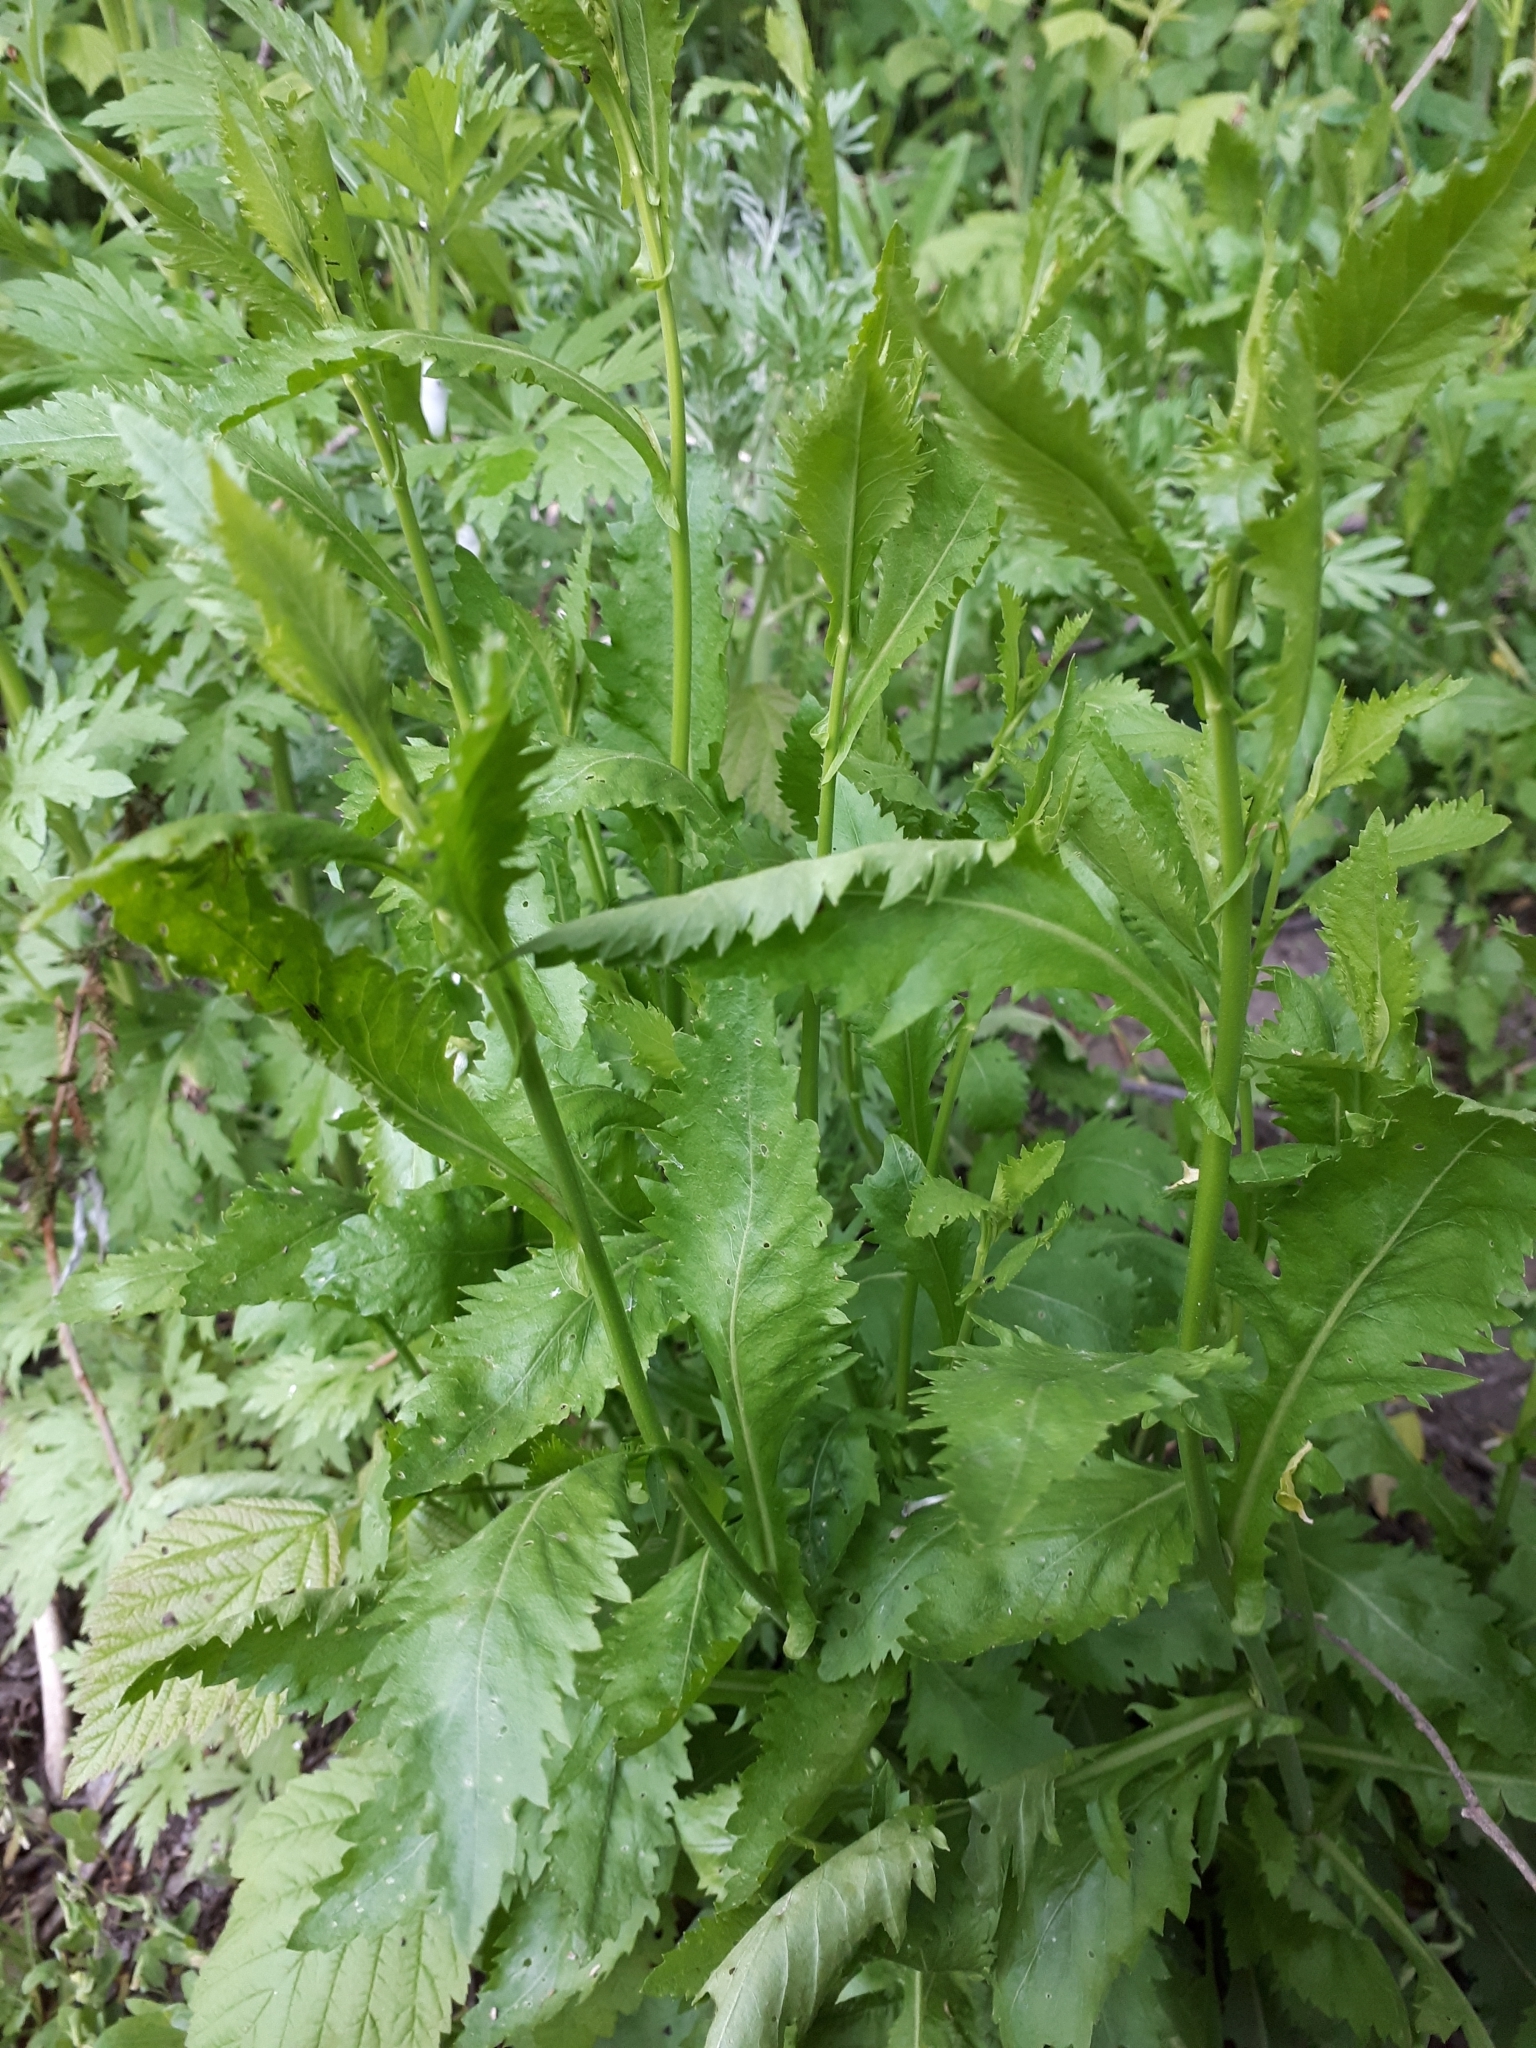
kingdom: Plantae
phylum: Tracheophyta
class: Magnoliopsida
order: Brassicales
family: Brassicaceae
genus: Rorippa
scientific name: Rorippa austriaca
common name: Austrian yellow-cress
